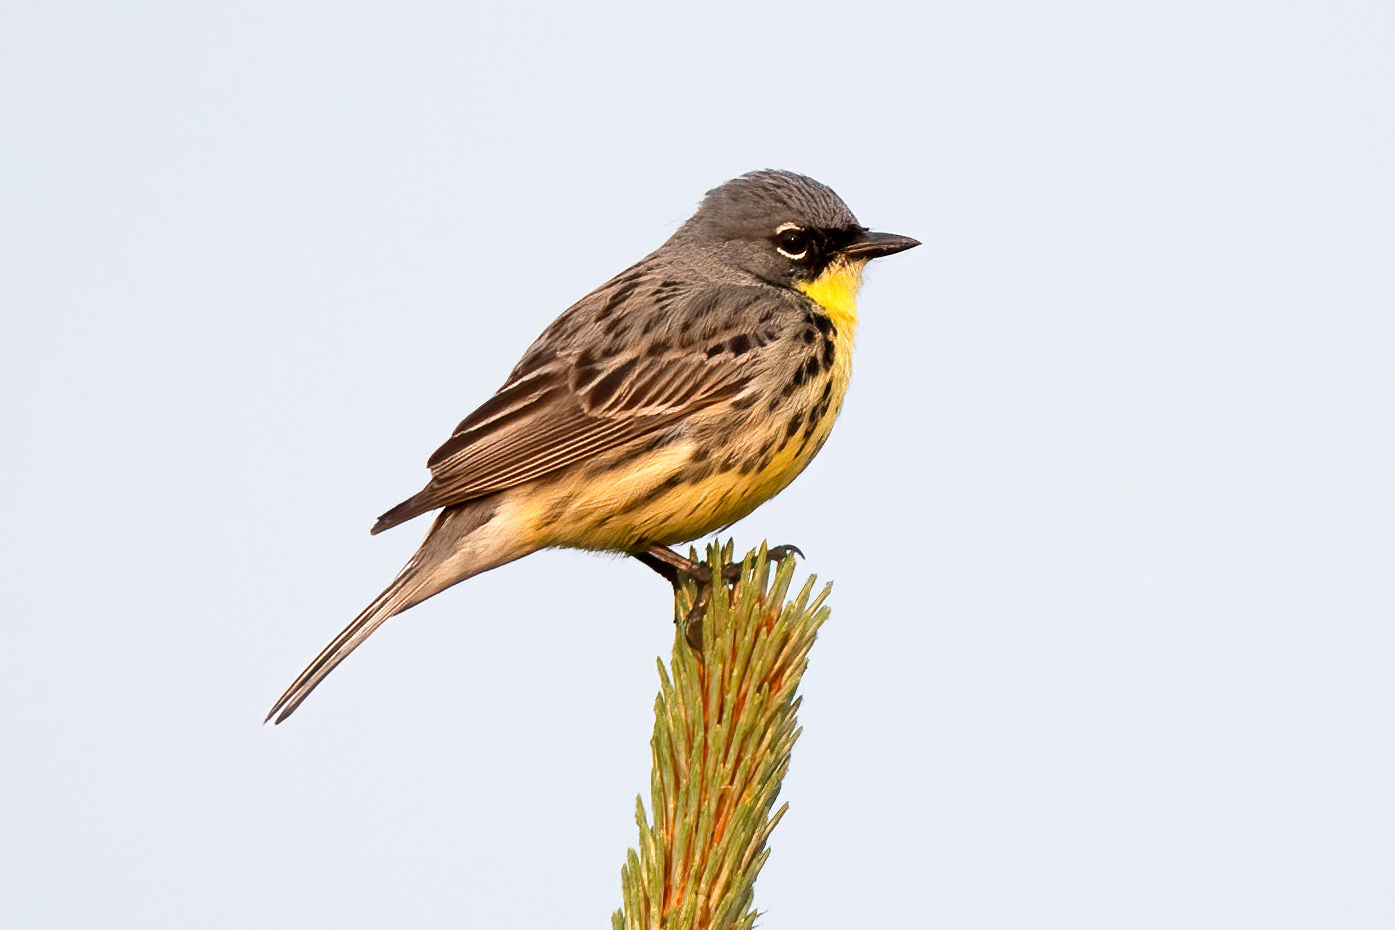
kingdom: Animalia
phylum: Chordata
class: Aves
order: Passeriformes
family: Parulidae
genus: Setophaga
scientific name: Setophaga kirtlandii
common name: Kirtland's warbler
